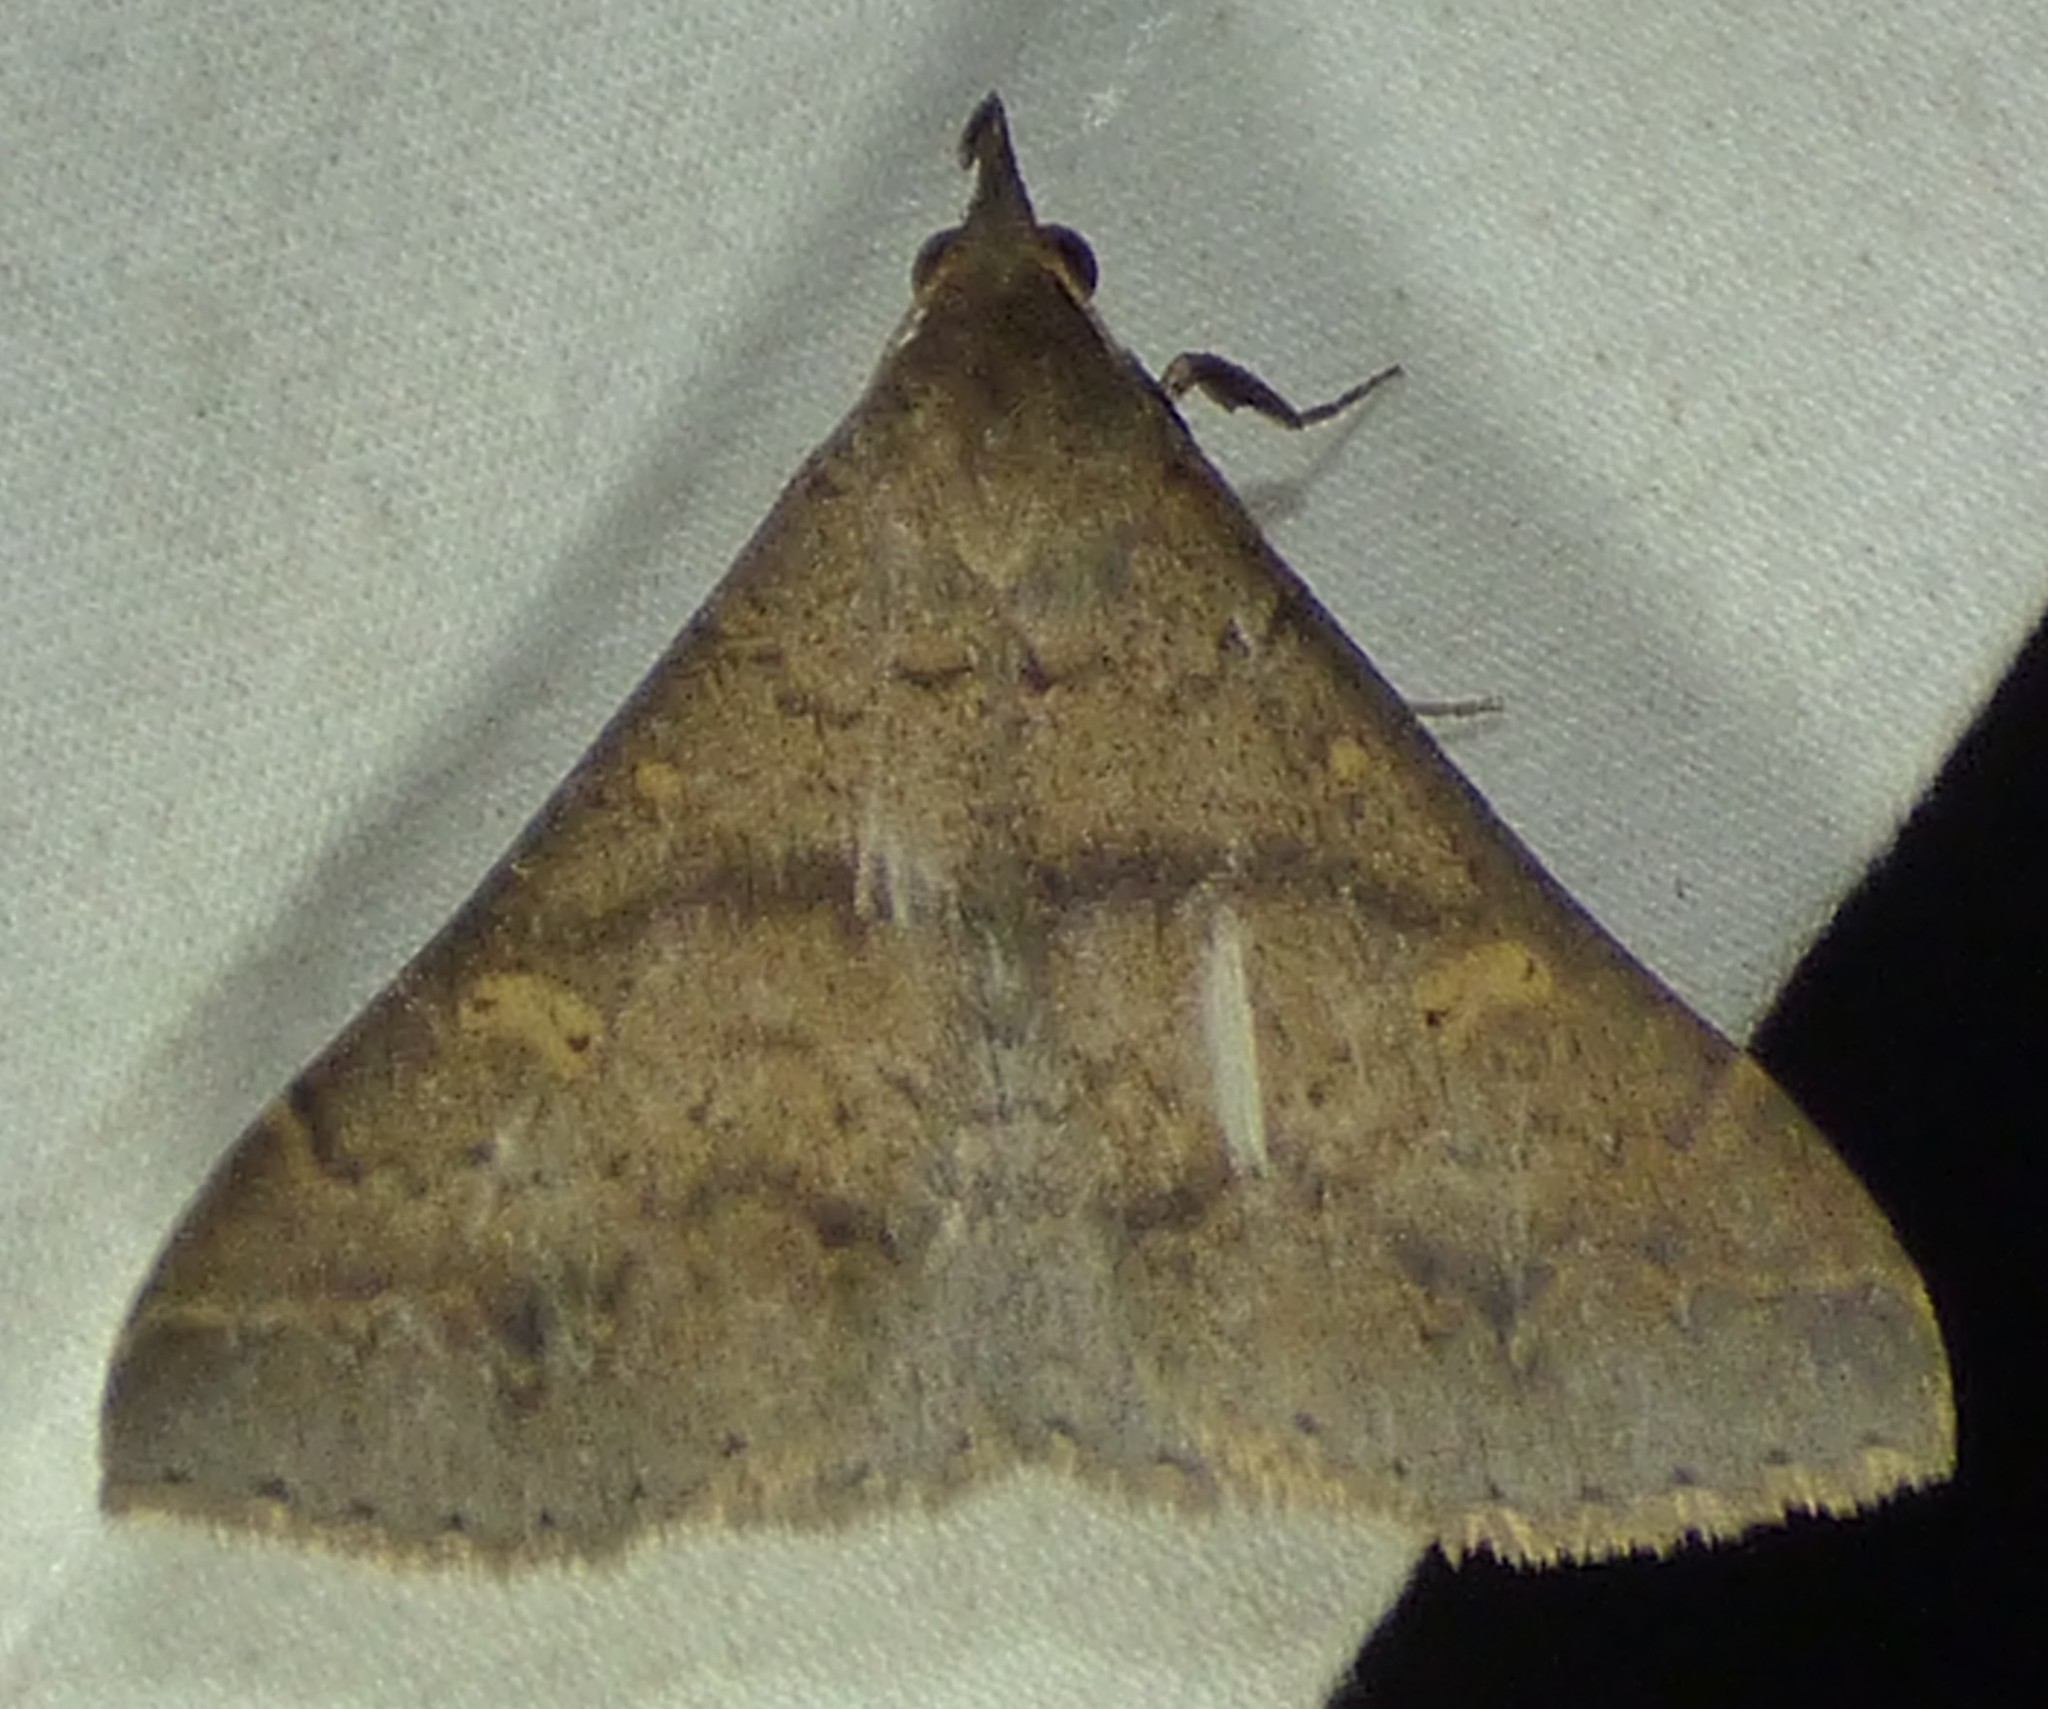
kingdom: Animalia
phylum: Arthropoda
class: Insecta
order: Lepidoptera
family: Erebidae
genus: Renia
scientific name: Renia discoloralis
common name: Discolored renia moth
